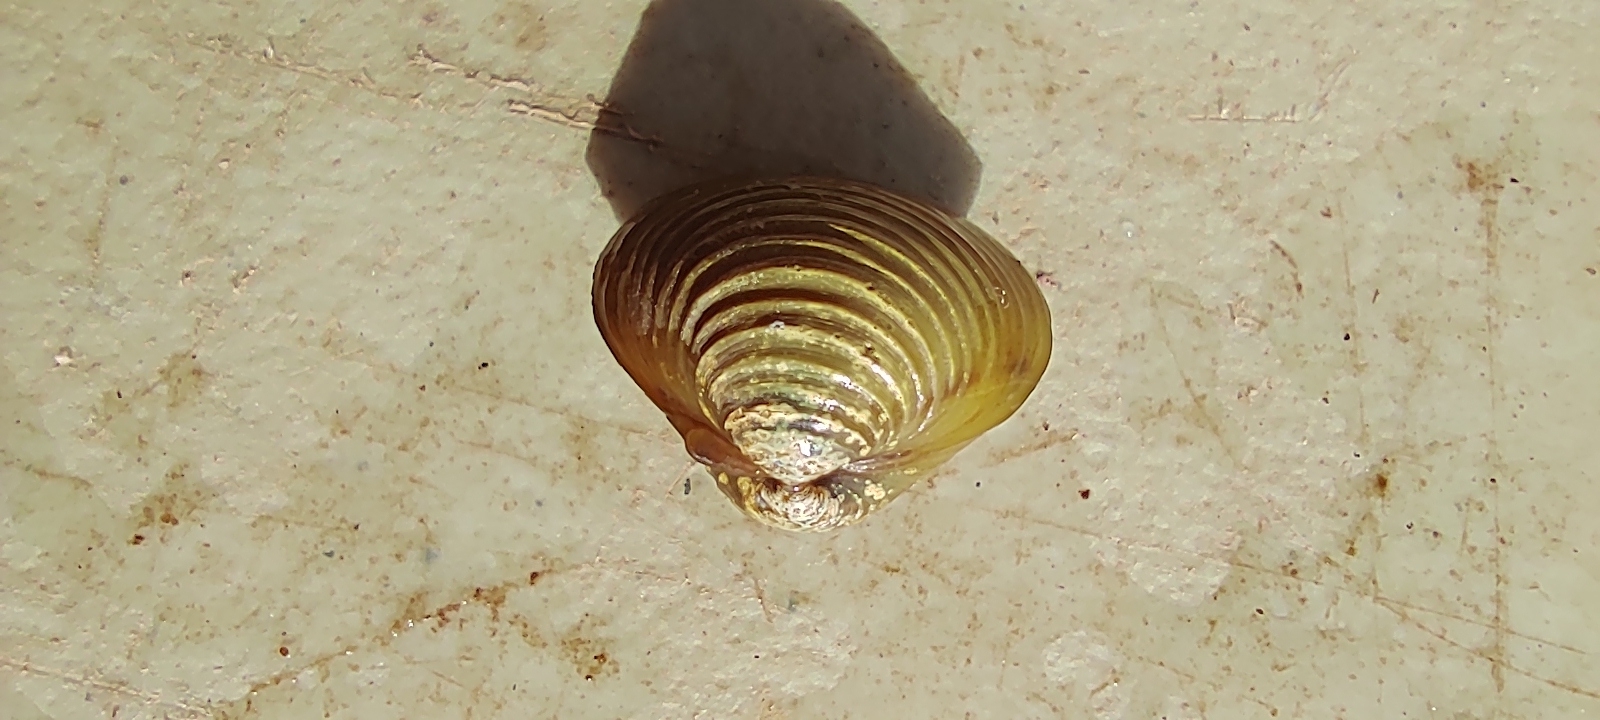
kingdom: Animalia
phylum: Mollusca
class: Bivalvia
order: Venerida
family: Cyrenidae
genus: Corbicula
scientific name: Corbicula fluminea
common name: Asian clam
